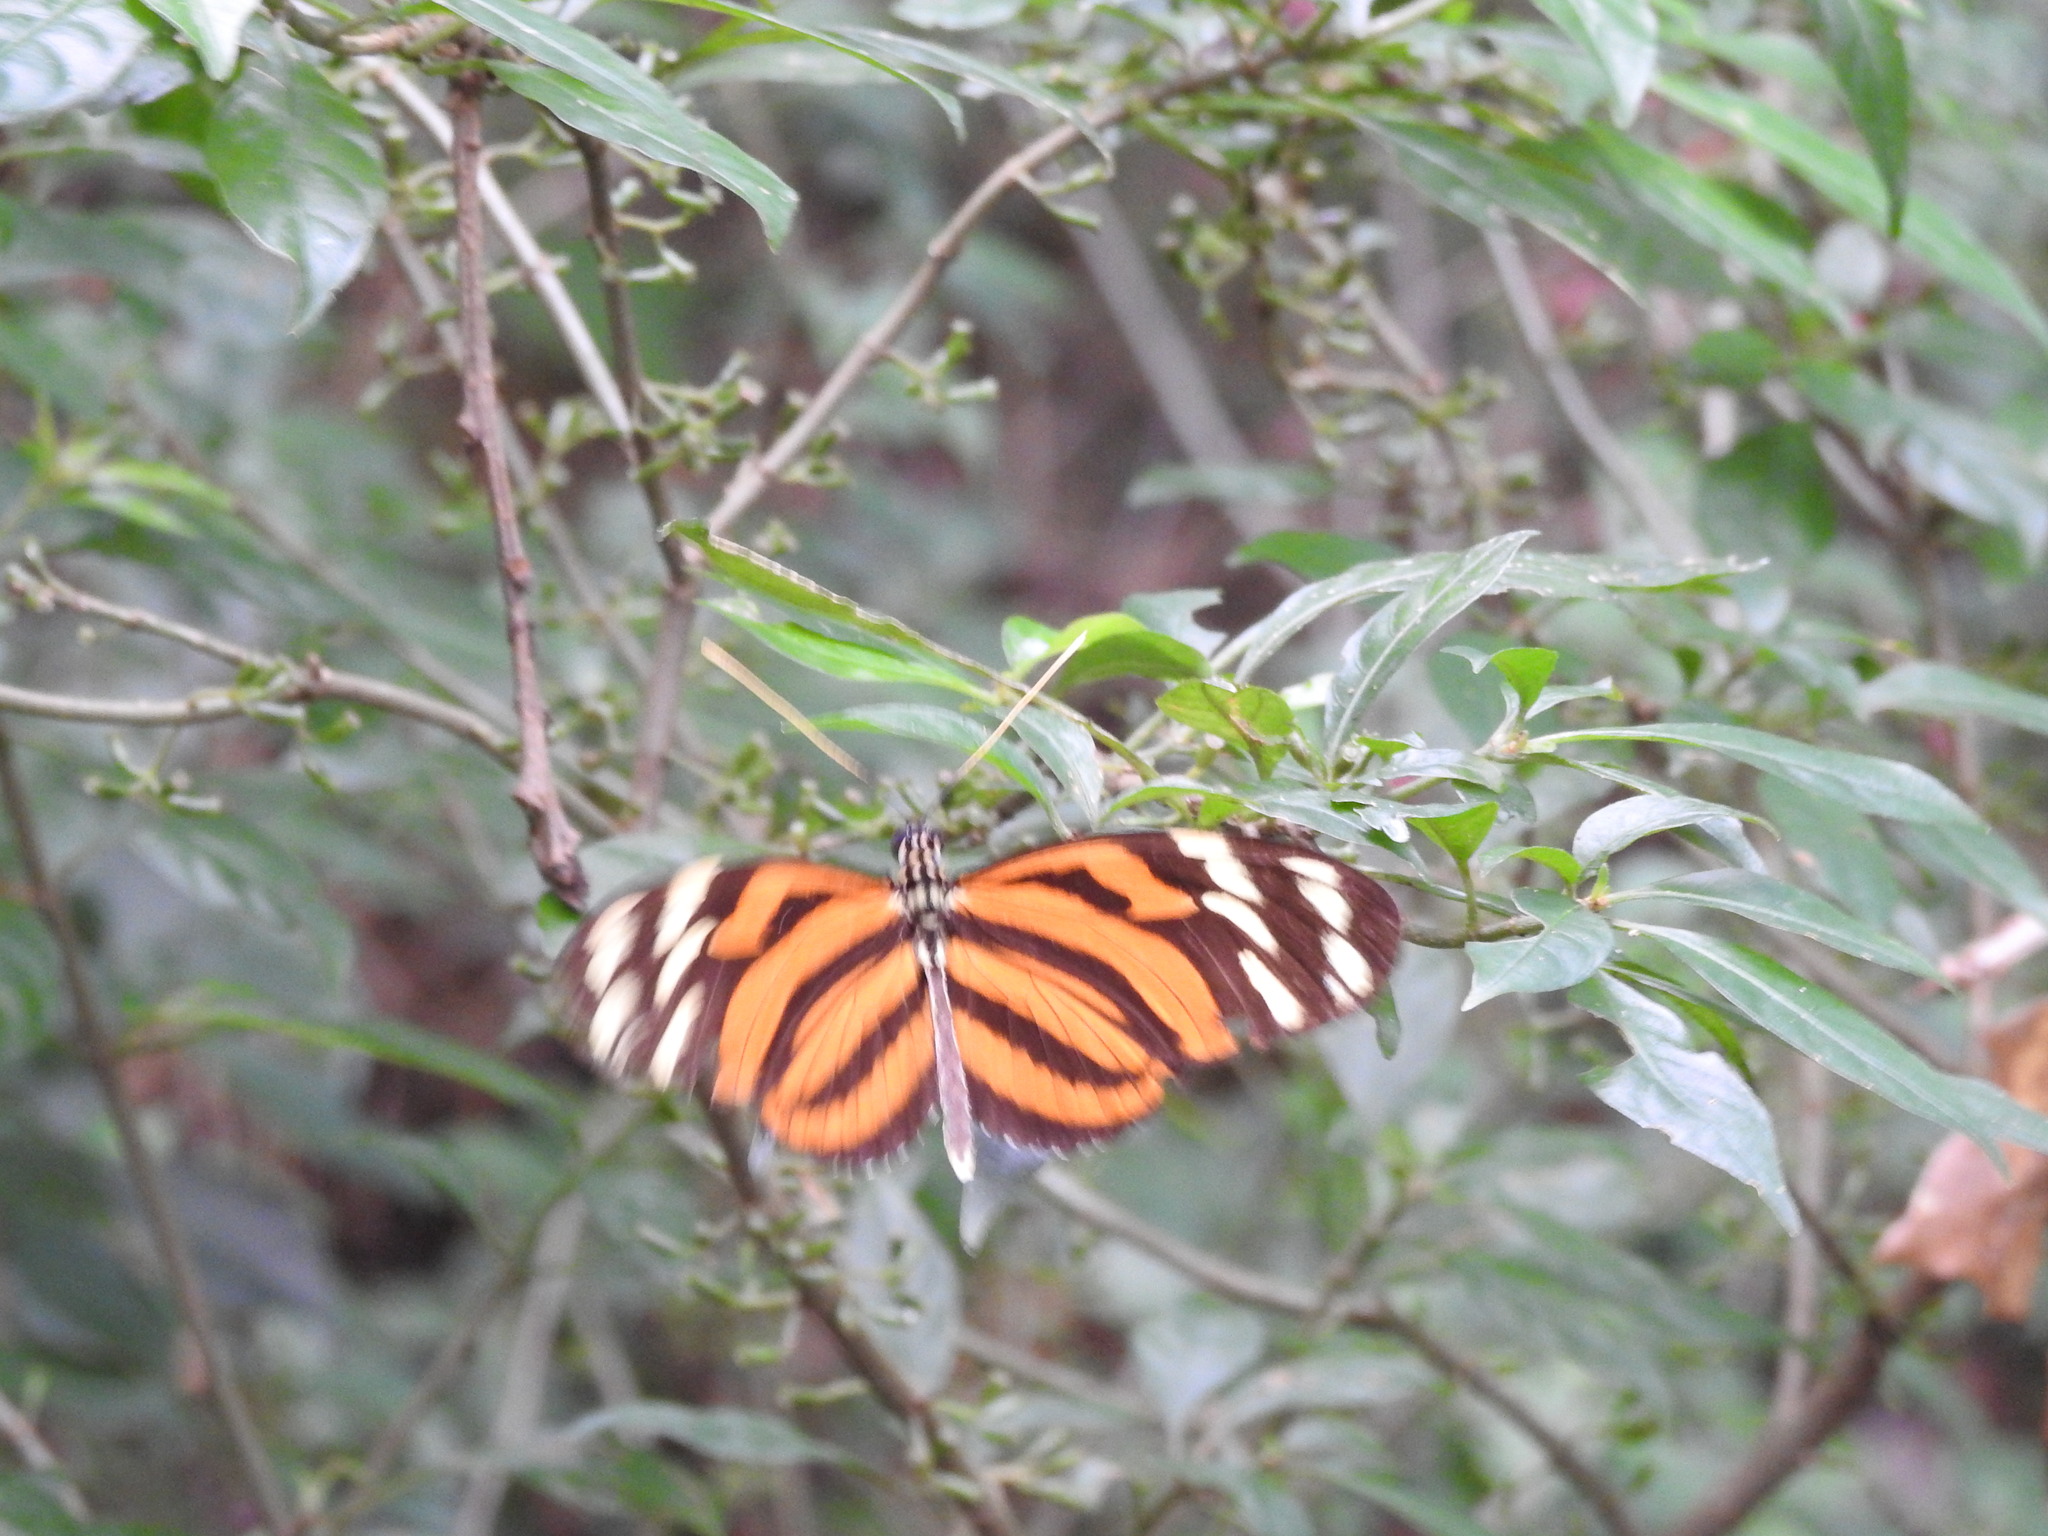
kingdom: Animalia
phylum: Arthropoda
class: Insecta
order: Lepidoptera
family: Nymphalidae
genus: Heliconius
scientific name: Heliconius ismenius
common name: Ismenius tiger
